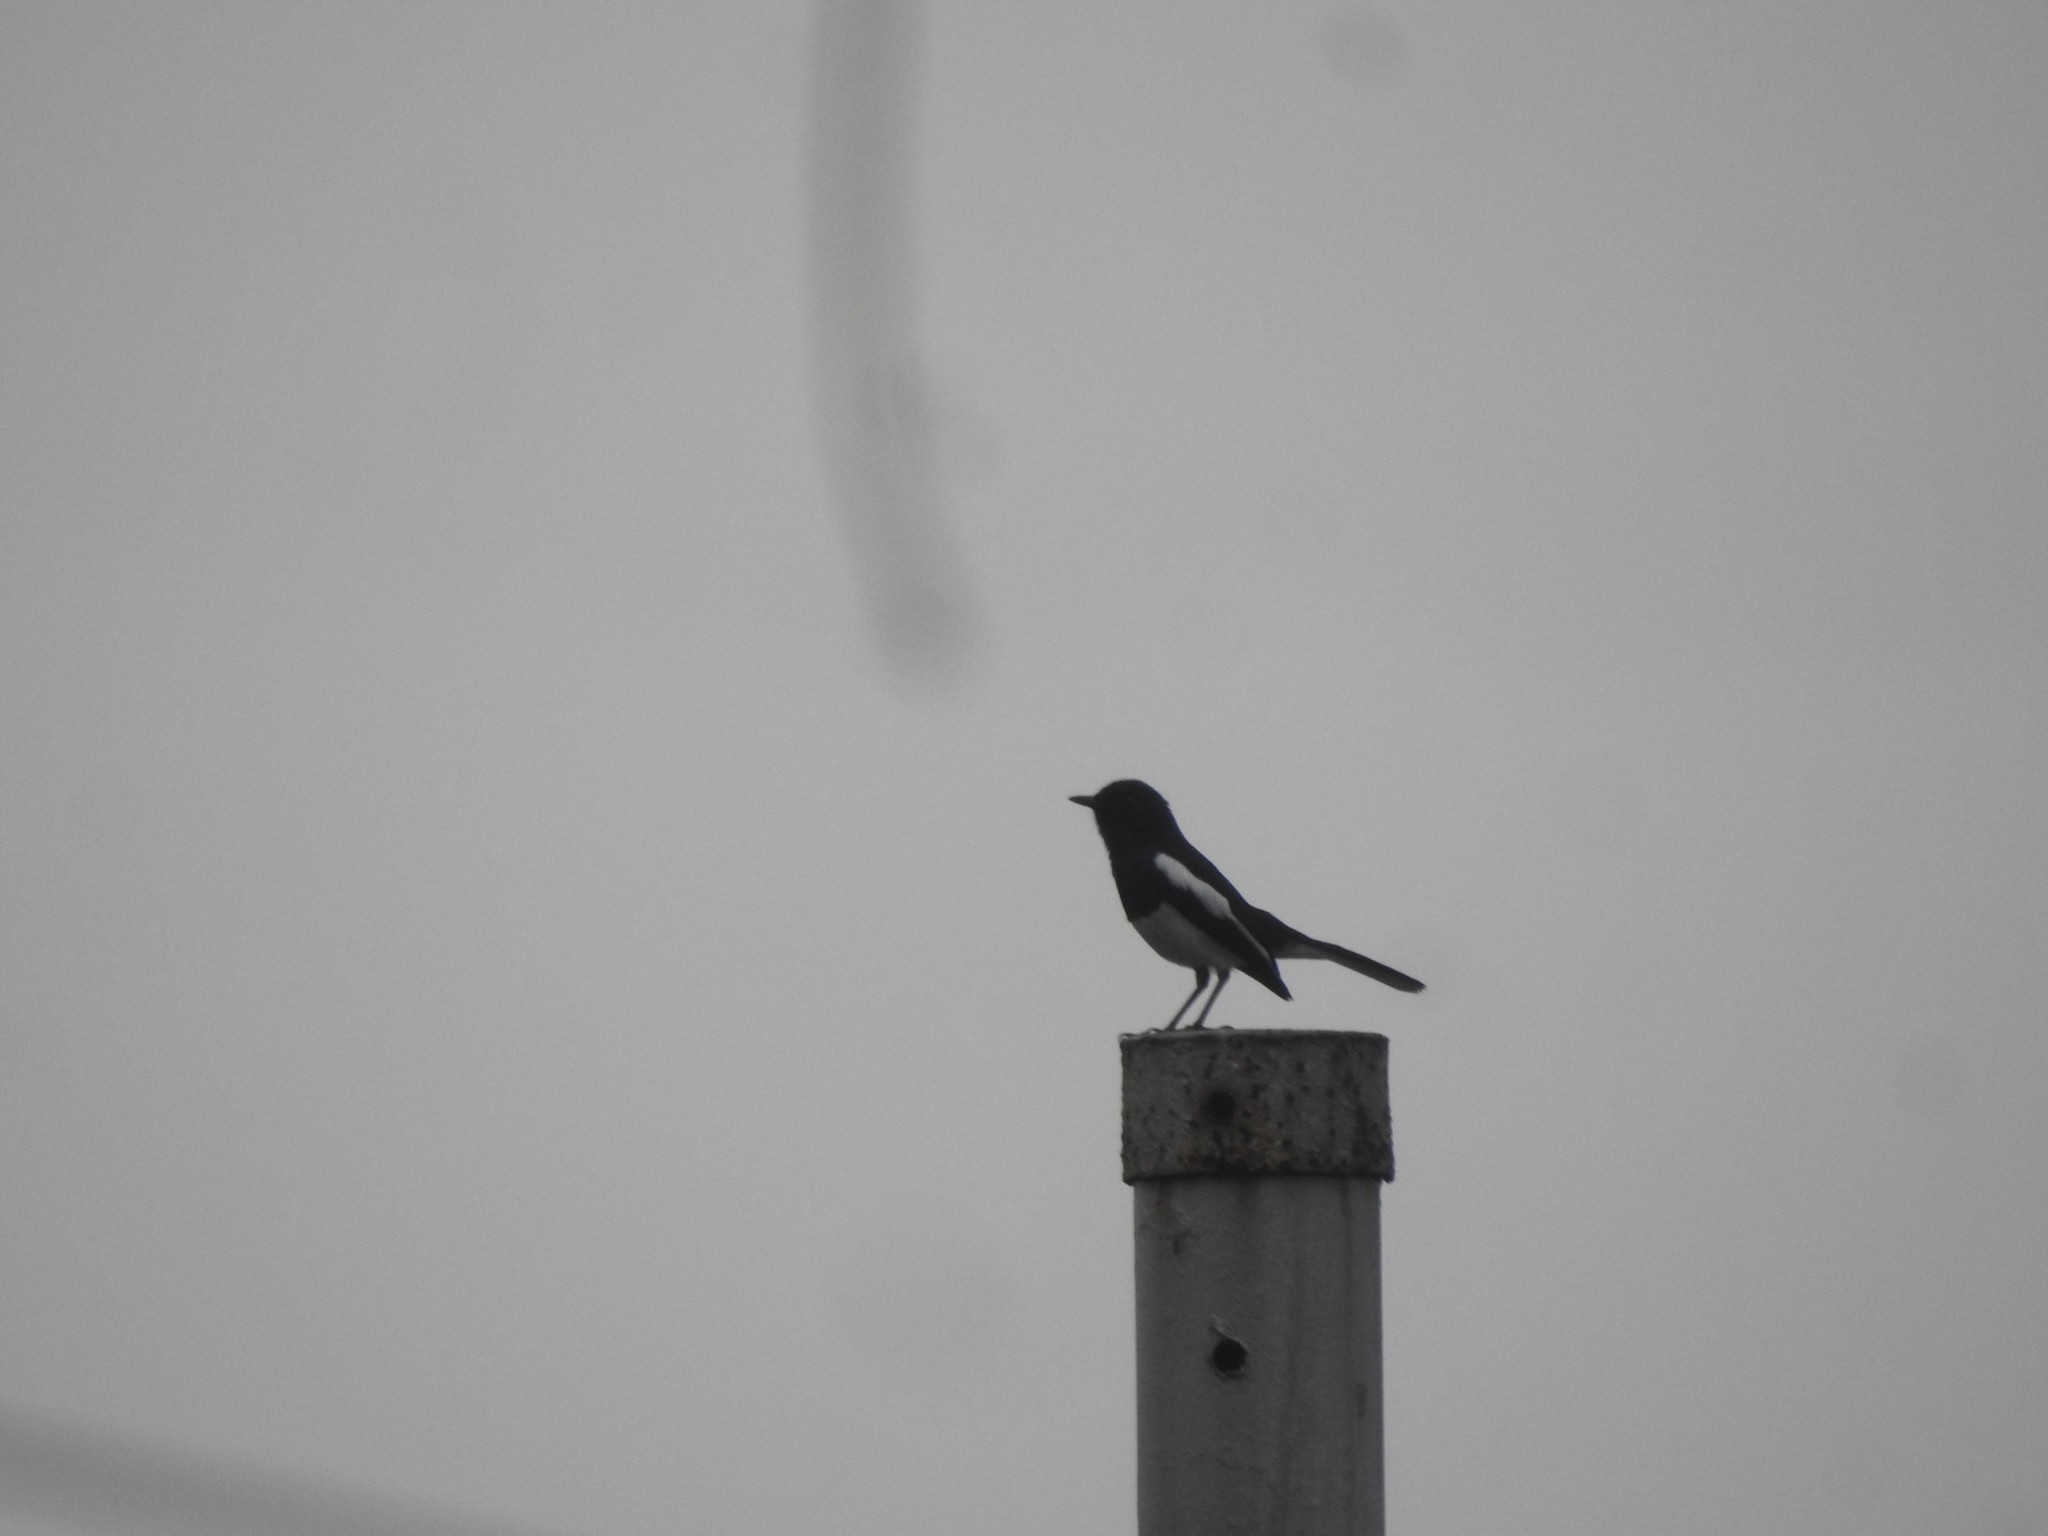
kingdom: Animalia
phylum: Chordata
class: Aves
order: Passeriformes
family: Muscicapidae
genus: Copsychus
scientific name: Copsychus saularis
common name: Oriental magpie-robin
